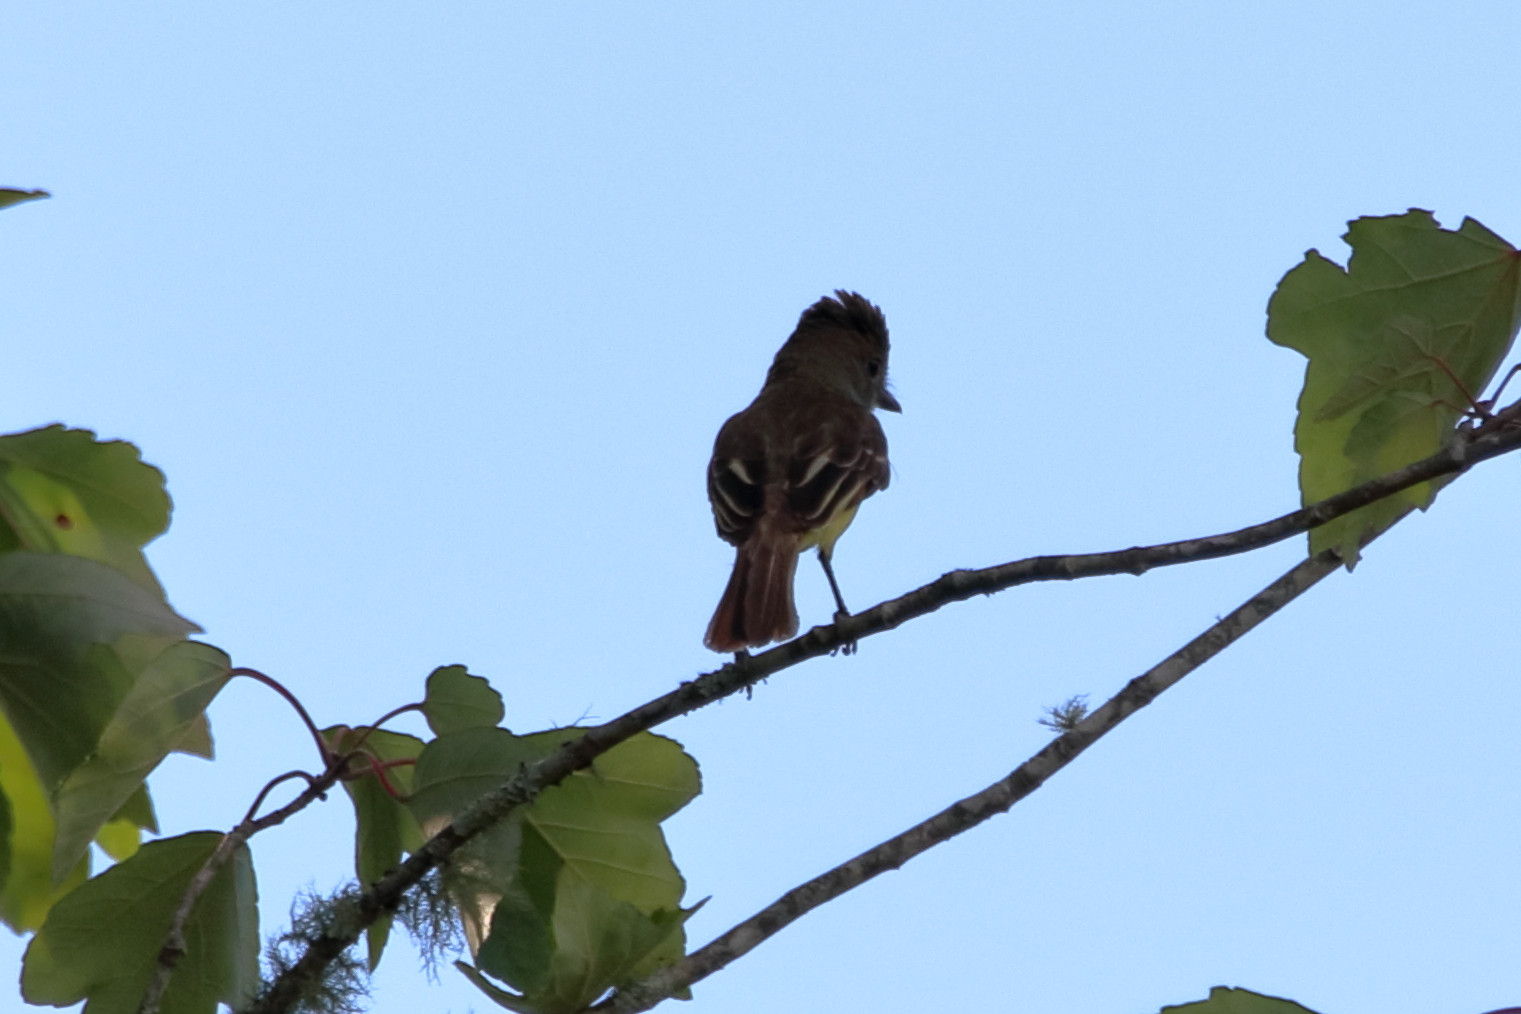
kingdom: Animalia
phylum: Chordata
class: Aves
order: Passeriformes
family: Tyrannidae
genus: Myiarchus
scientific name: Myiarchus crinitus
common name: Great crested flycatcher
